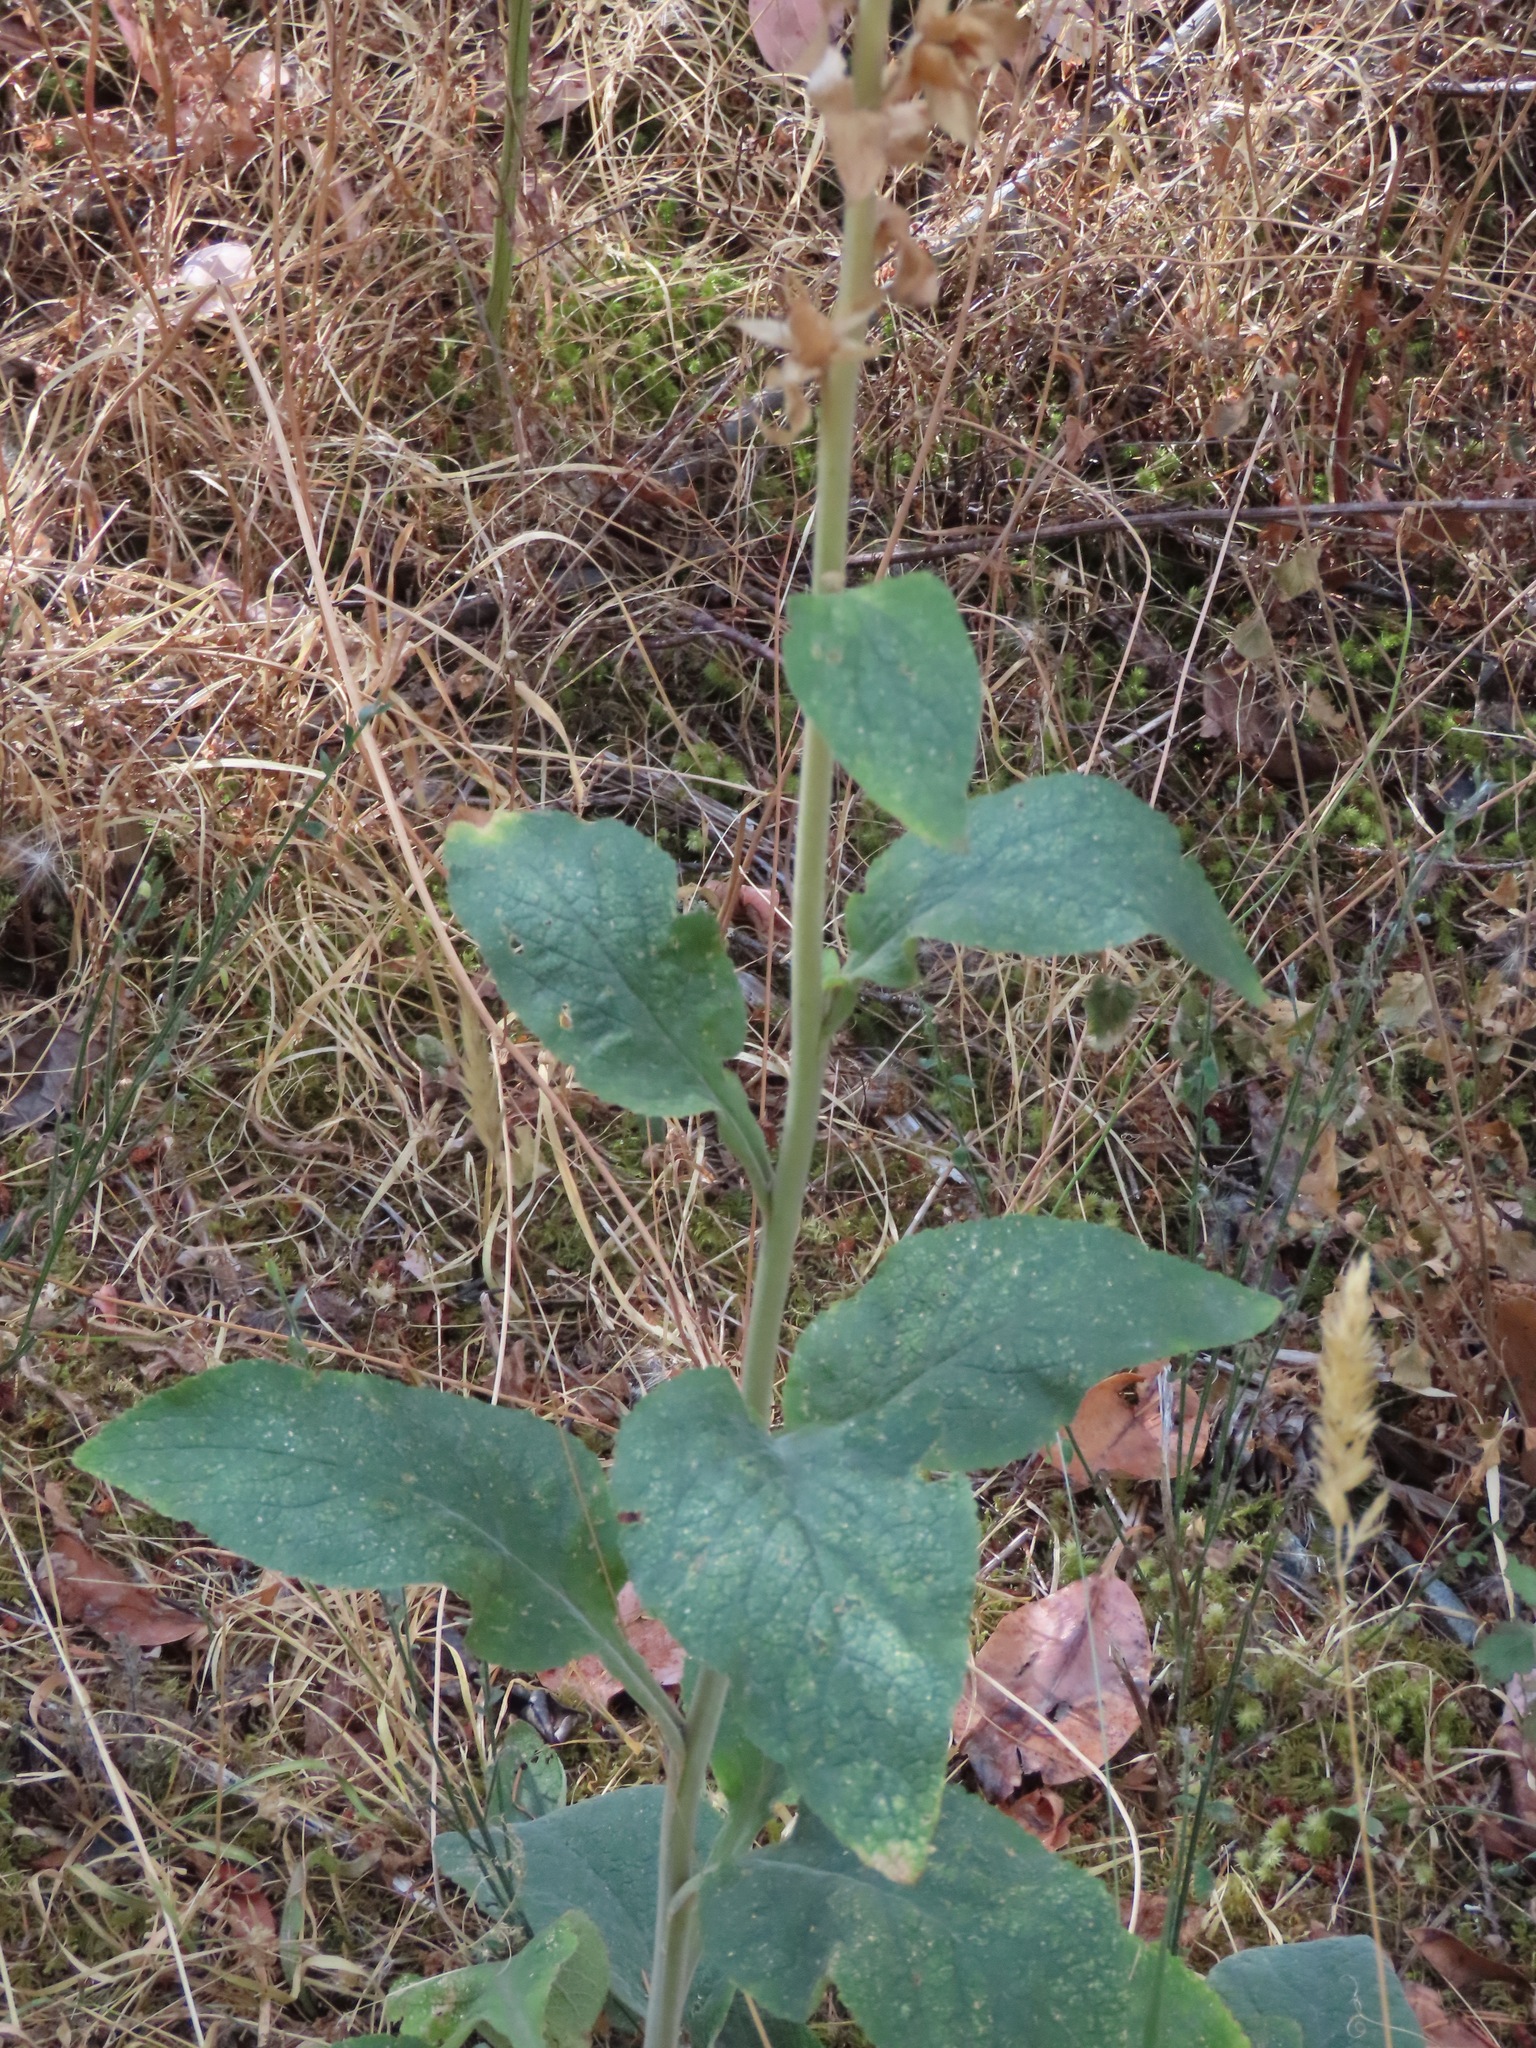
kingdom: Plantae
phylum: Tracheophyta
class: Magnoliopsida
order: Lamiales
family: Plantaginaceae
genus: Digitalis
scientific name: Digitalis purpurea
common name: Foxglove
